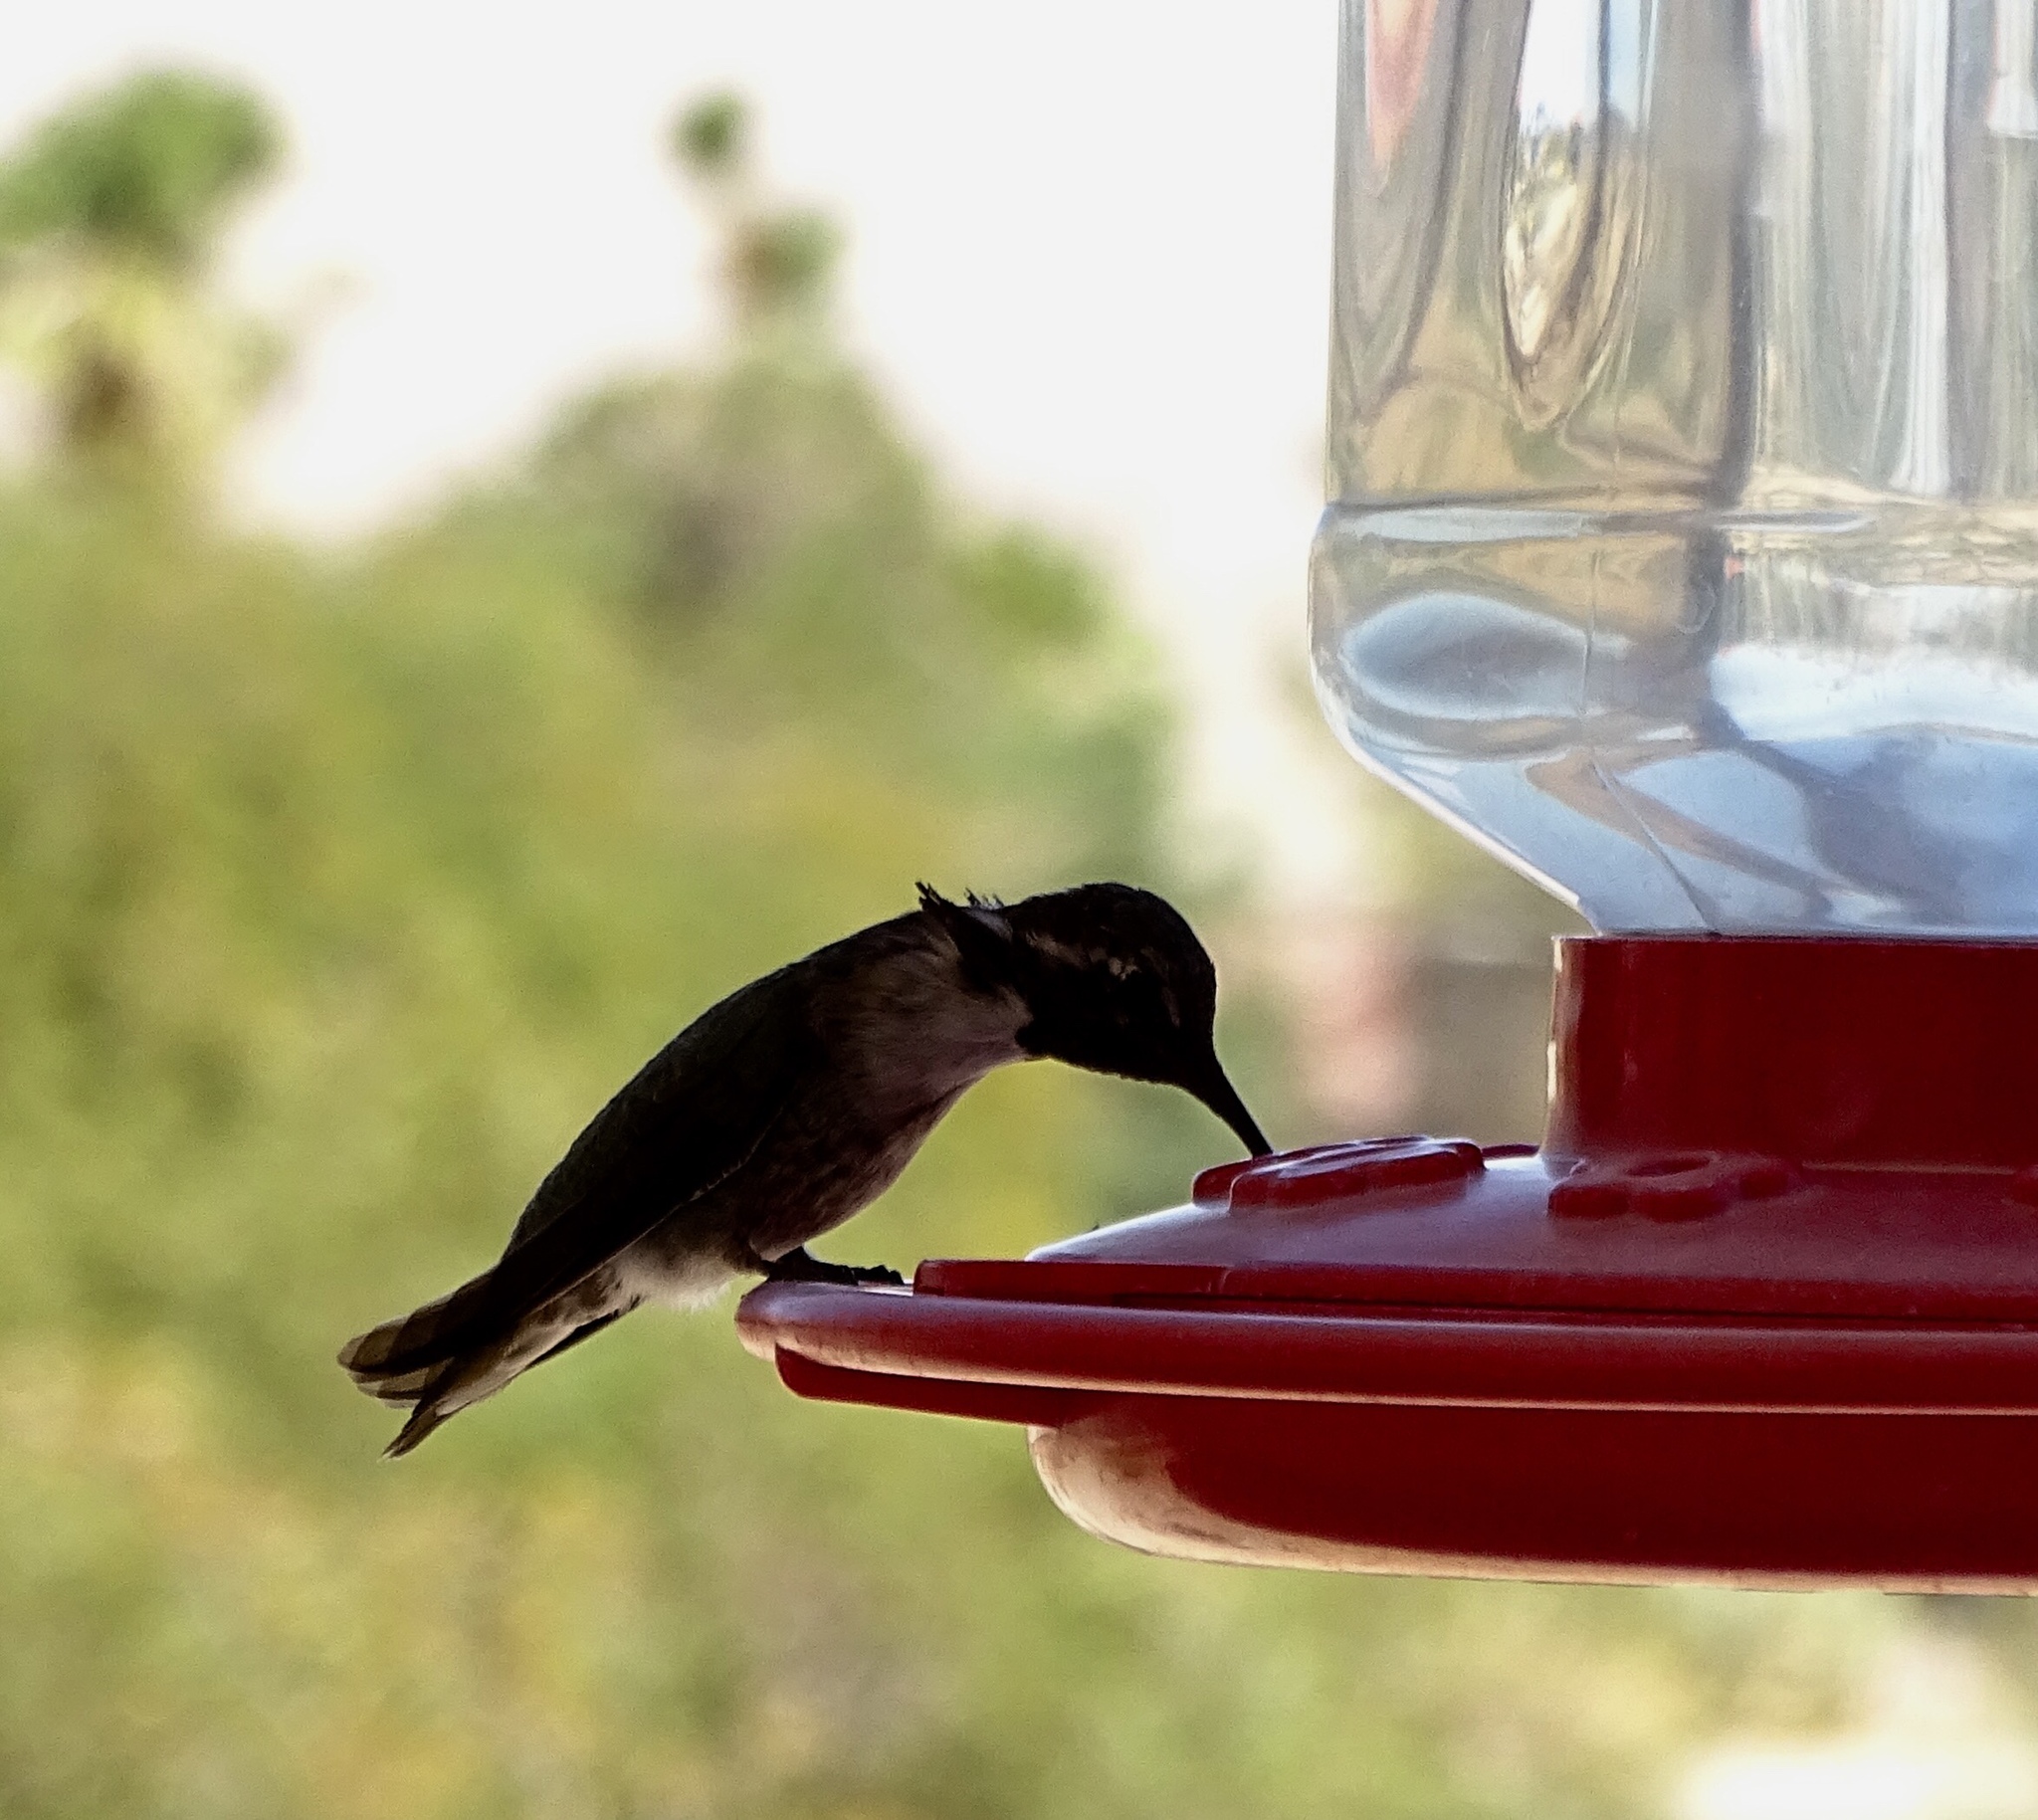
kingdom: Animalia
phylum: Chordata
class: Aves
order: Apodiformes
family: Trochilidae
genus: Calypte
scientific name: Calypte costae
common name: Costa's hummingbird
